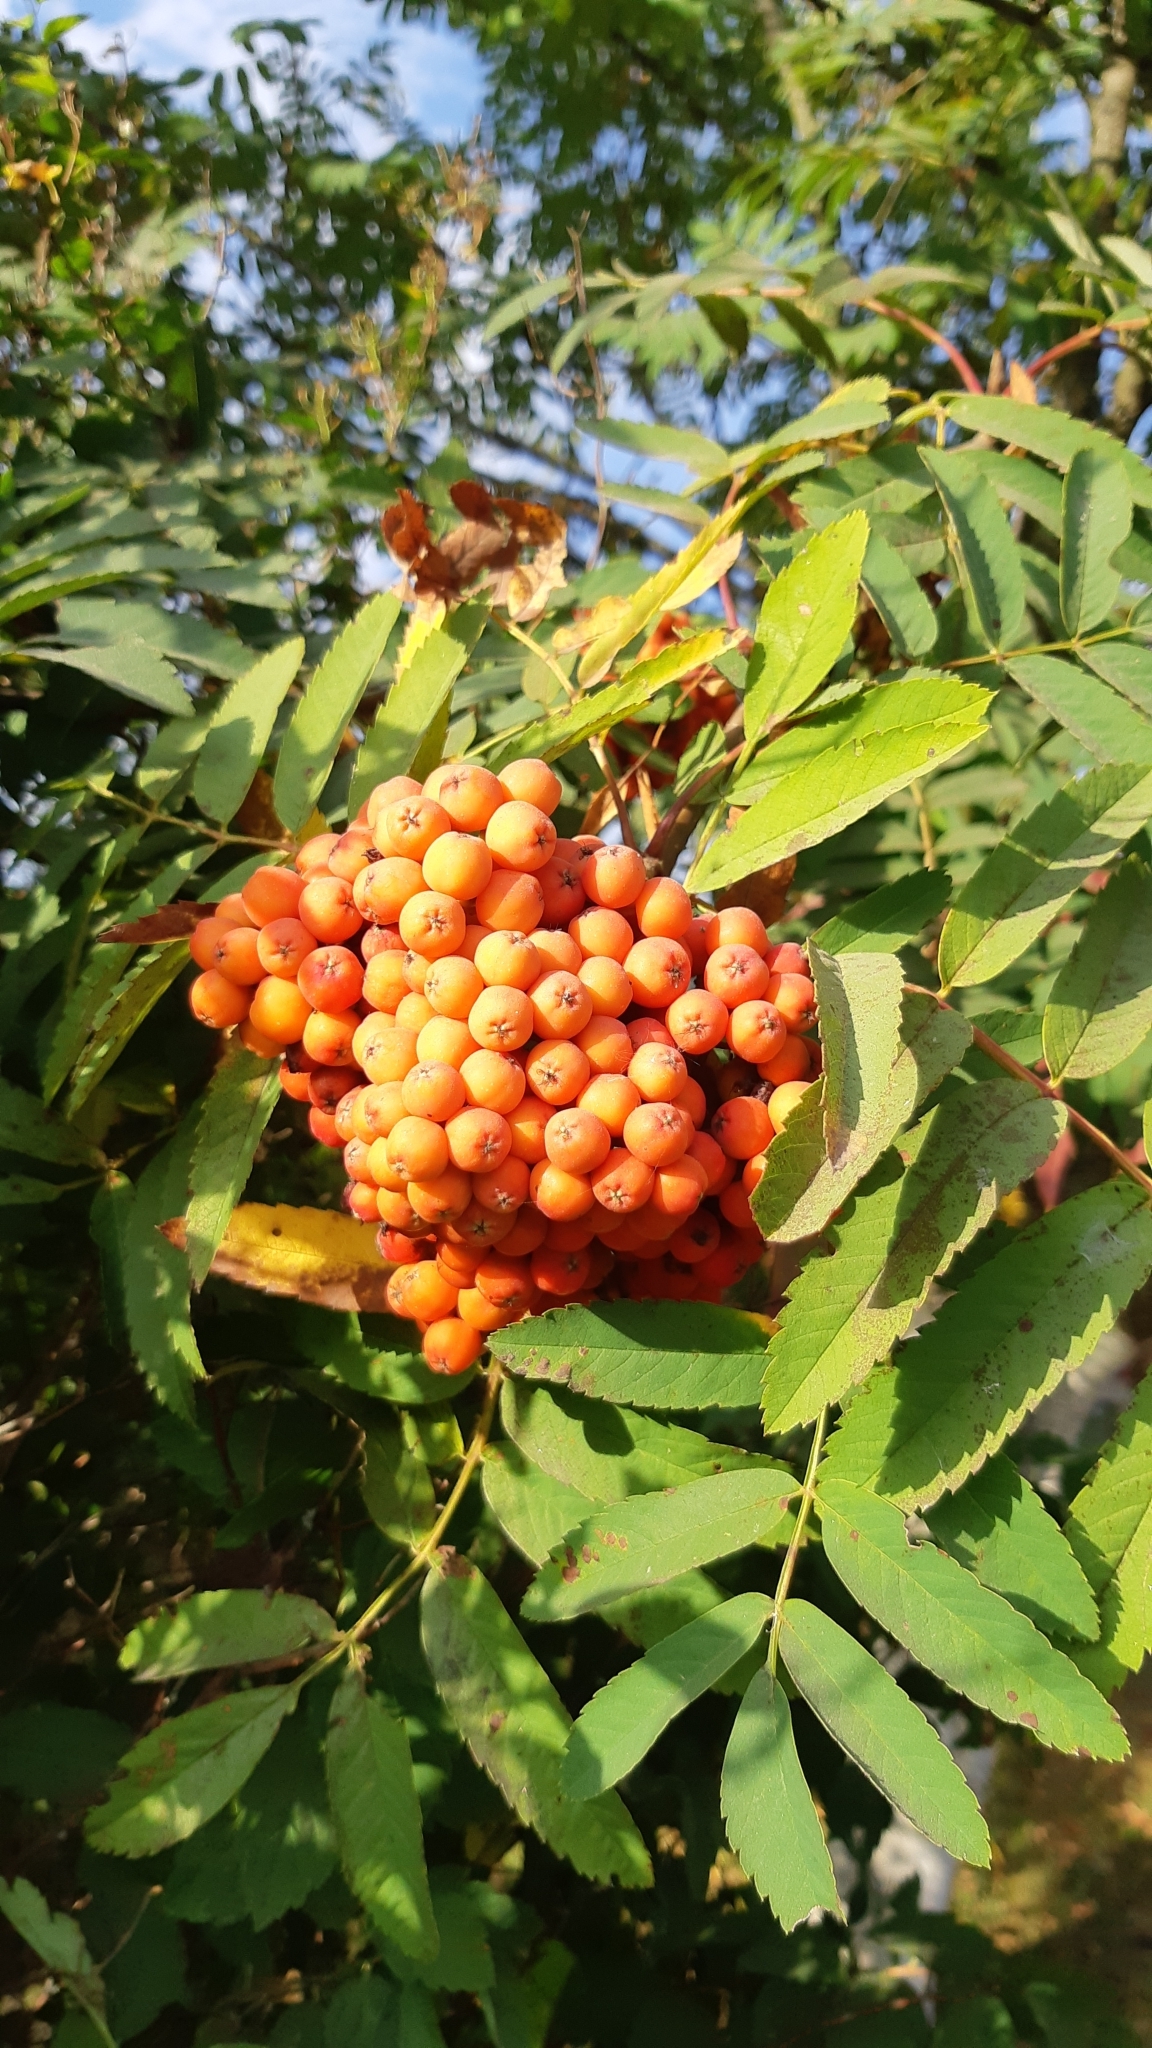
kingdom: Plantae
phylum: Tracheophyta
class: Magnoliopsida
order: Rosales
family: Rosaceae
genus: Sorbus
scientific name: Sorbus aucuparia
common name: Rowan
